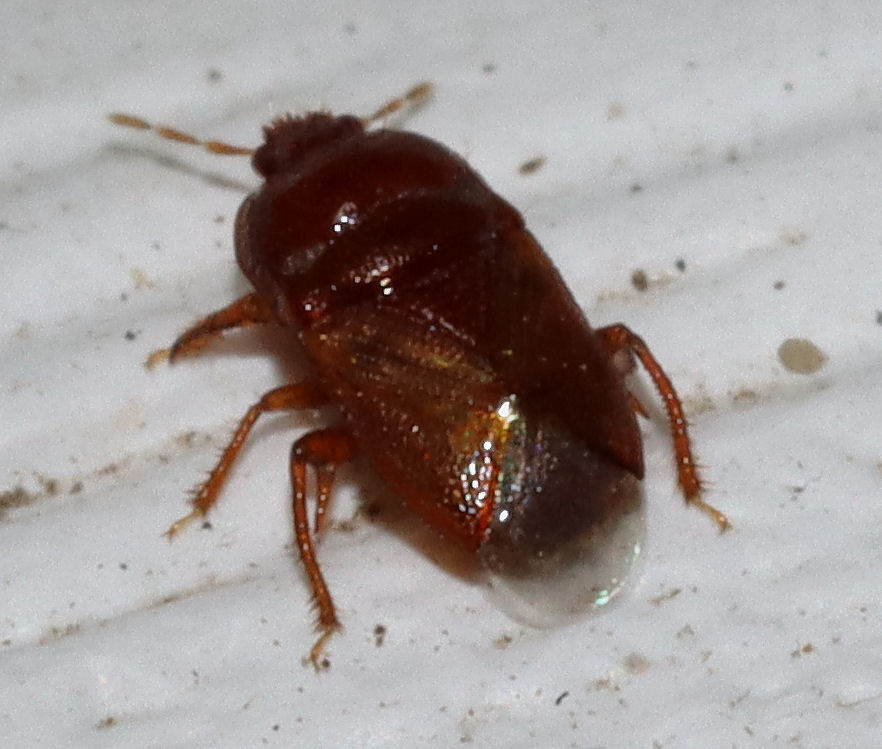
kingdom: Animalia
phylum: Arthropoda
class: Insecta
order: Hemiptera
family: Cydnidae
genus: Amnestus
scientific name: Amnestus
